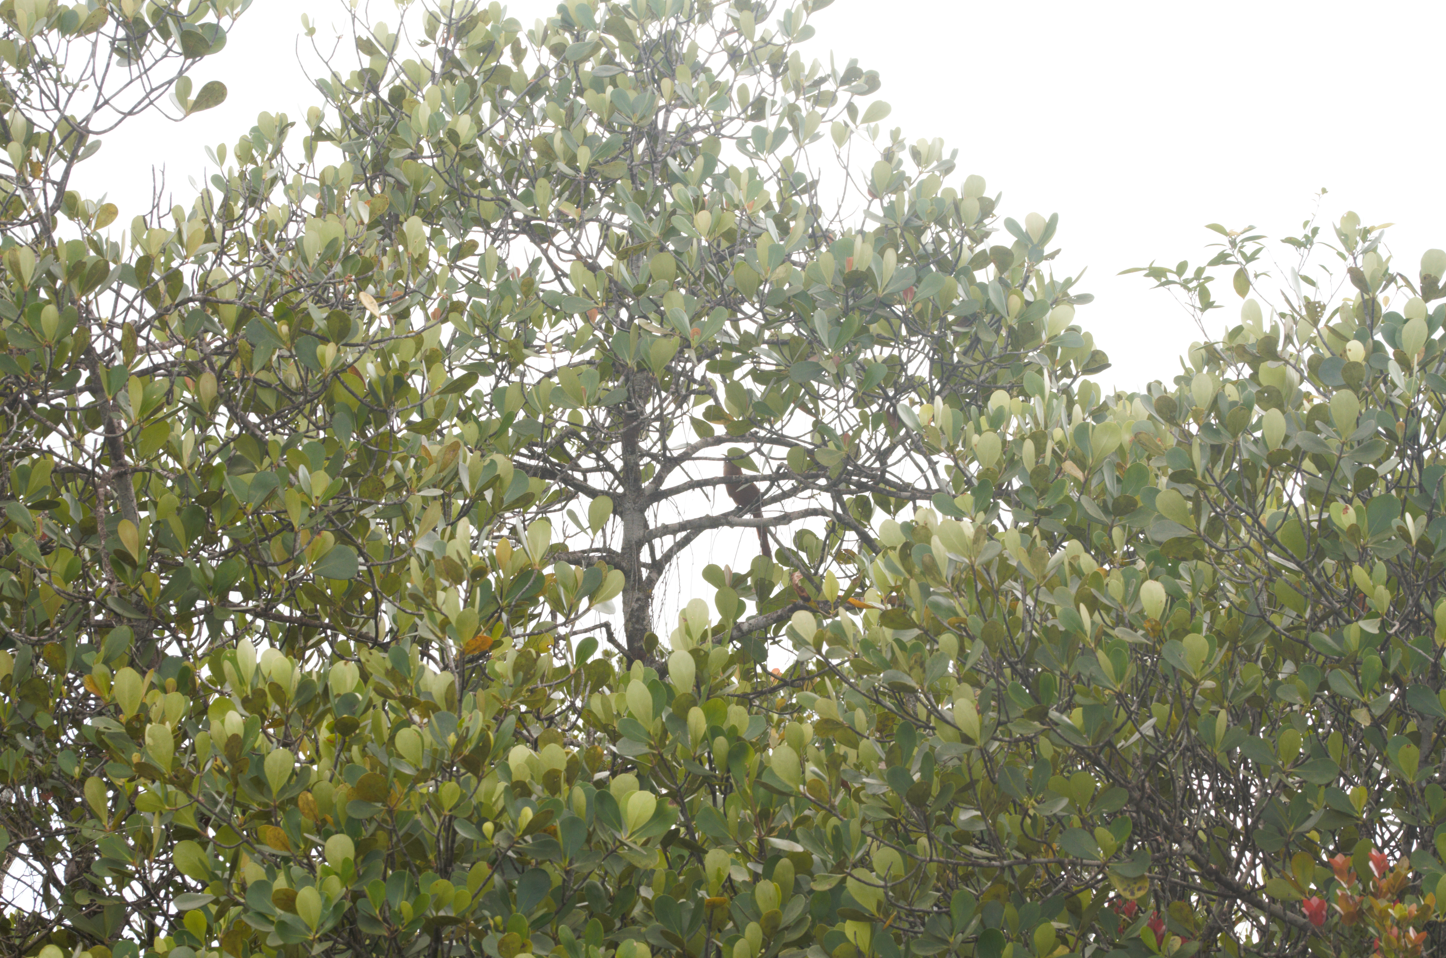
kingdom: Animalia
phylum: Chordata
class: Aves
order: Cuculiformes
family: Cuculidae
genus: Piaya
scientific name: Piaya cayana
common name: Squirrel cuckoo
